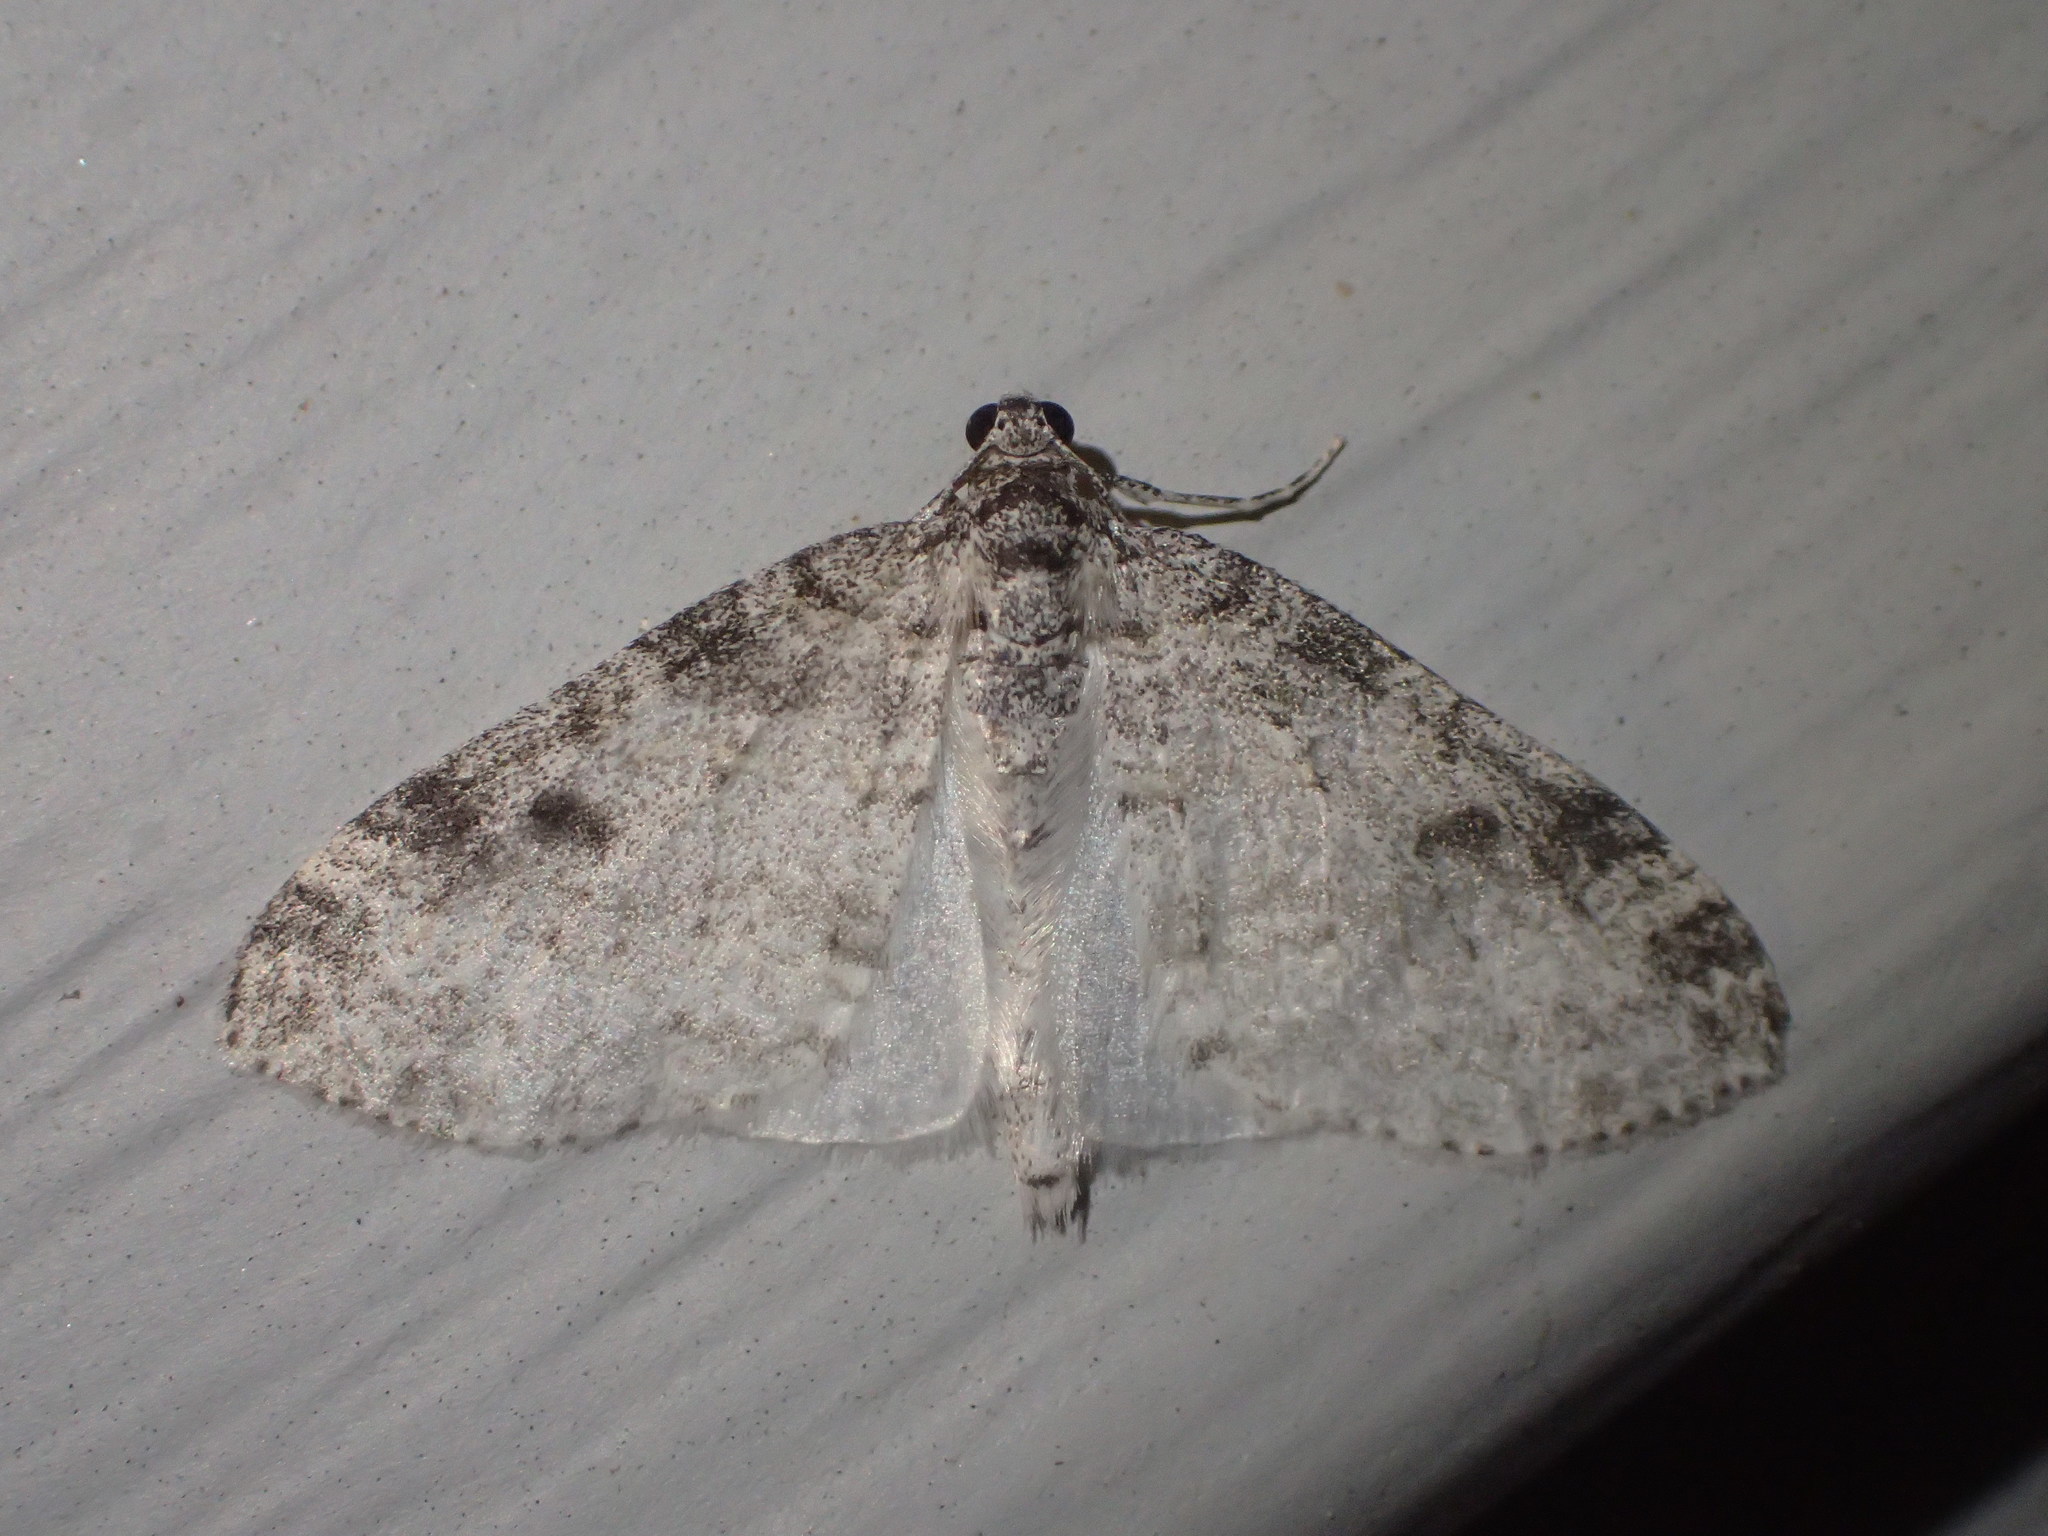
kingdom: Animalia
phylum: Arthropoda
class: Insecta
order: Lepidoptera
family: Geometridae
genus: Lobophora
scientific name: Lobophora nivigerata
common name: Powdered bigwing
